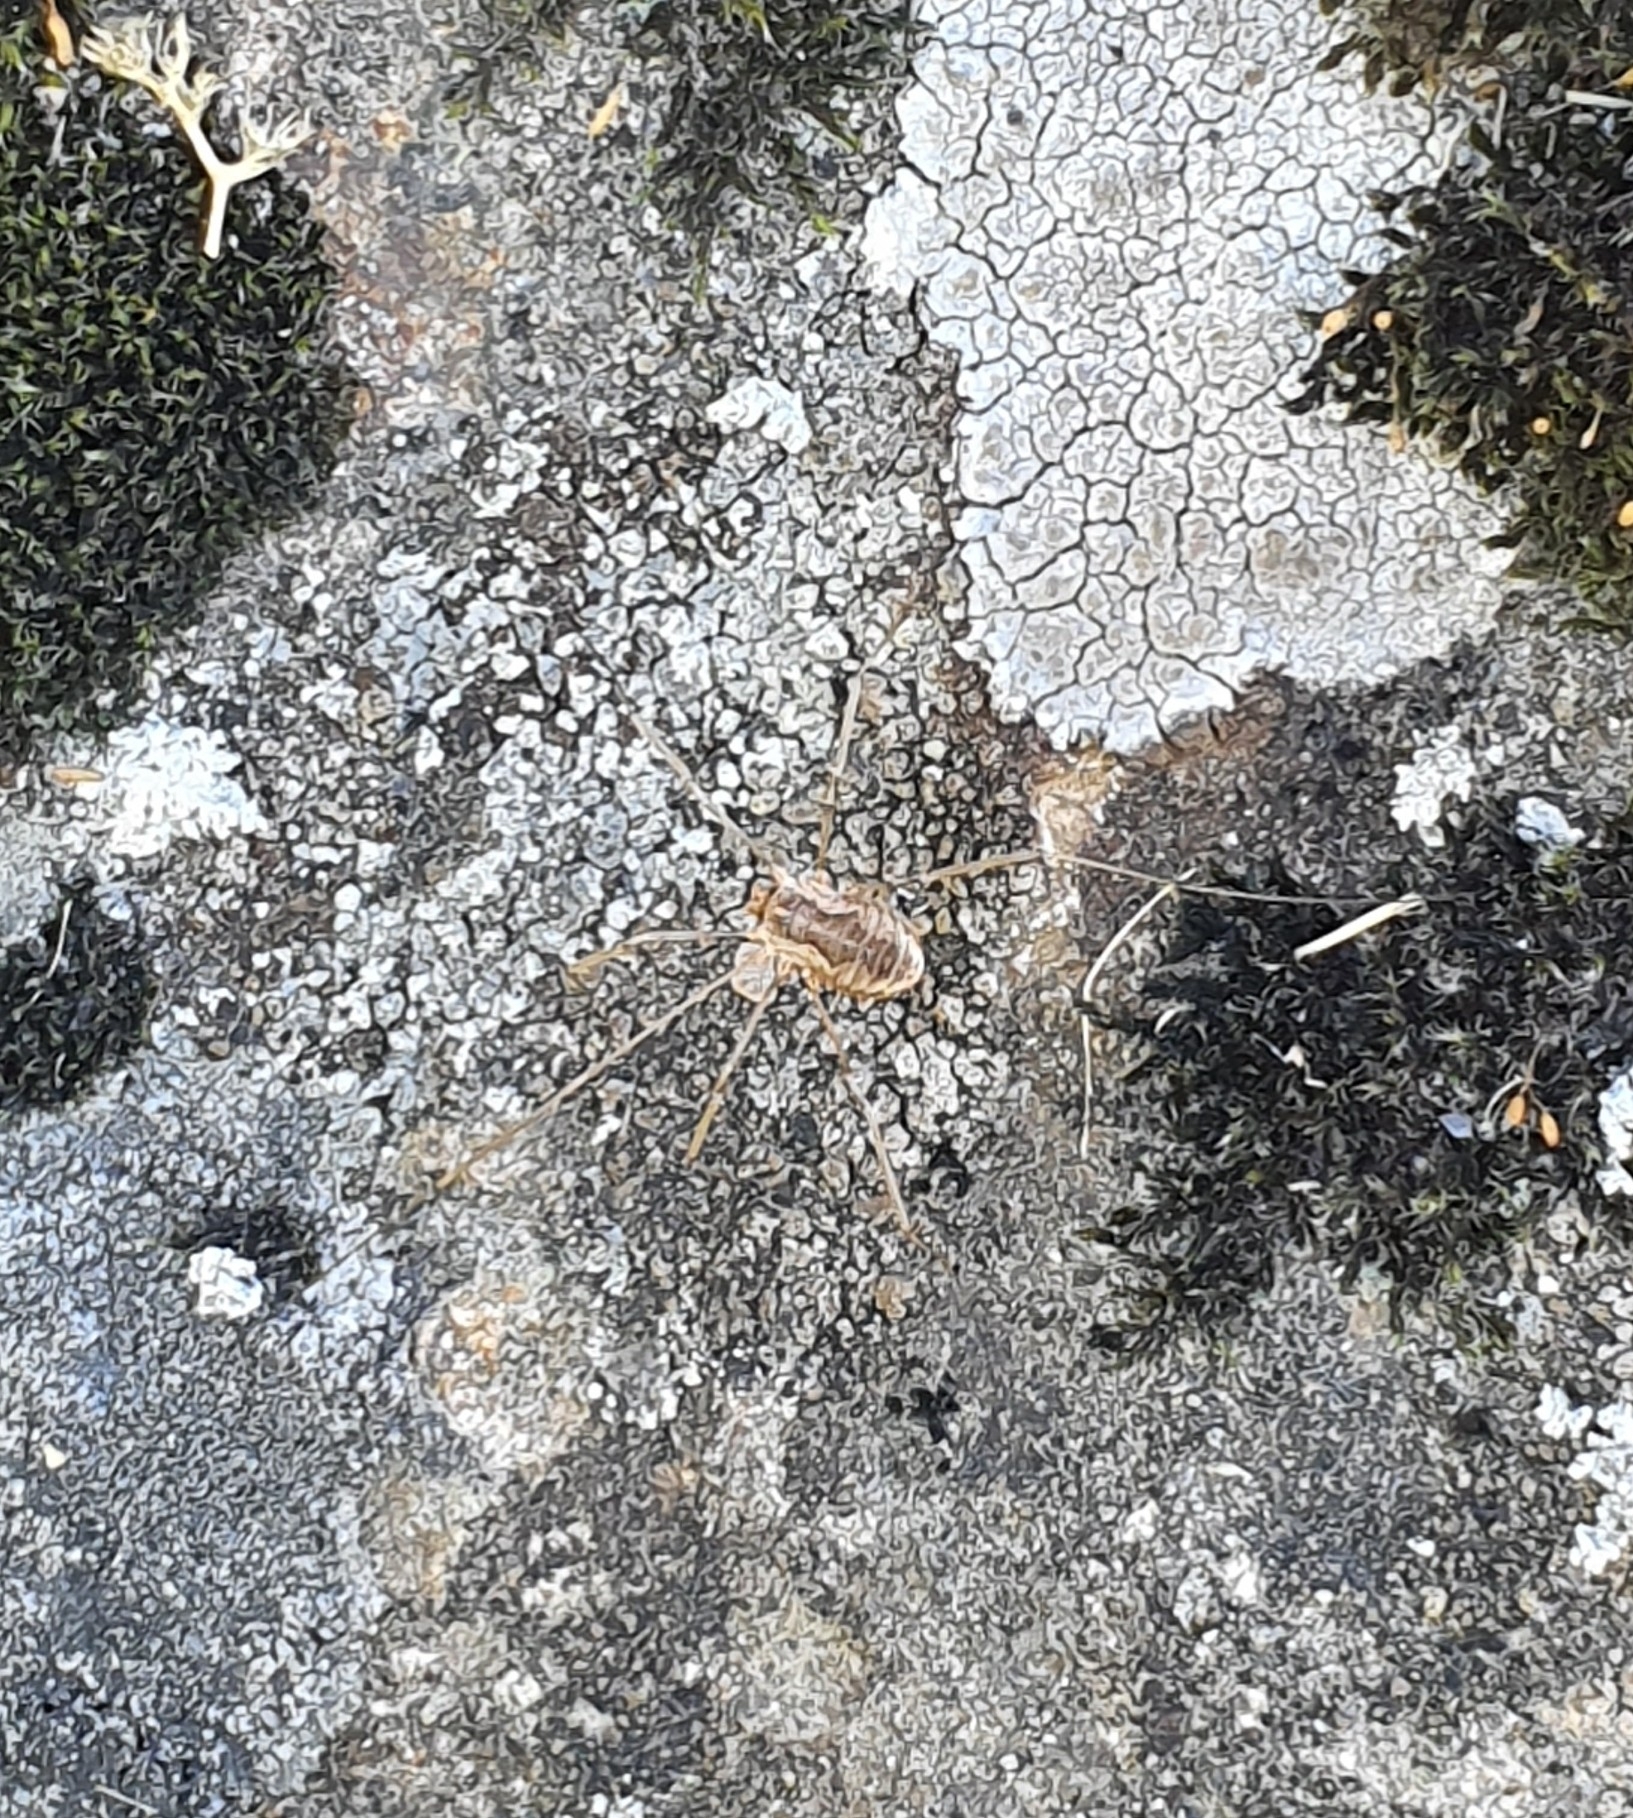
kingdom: Animalia
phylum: Arthropoda
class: Arachnida
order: Opiliones
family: Phalangiidae
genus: Phalangium
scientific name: Phalangium opilio
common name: Daddy longleg
